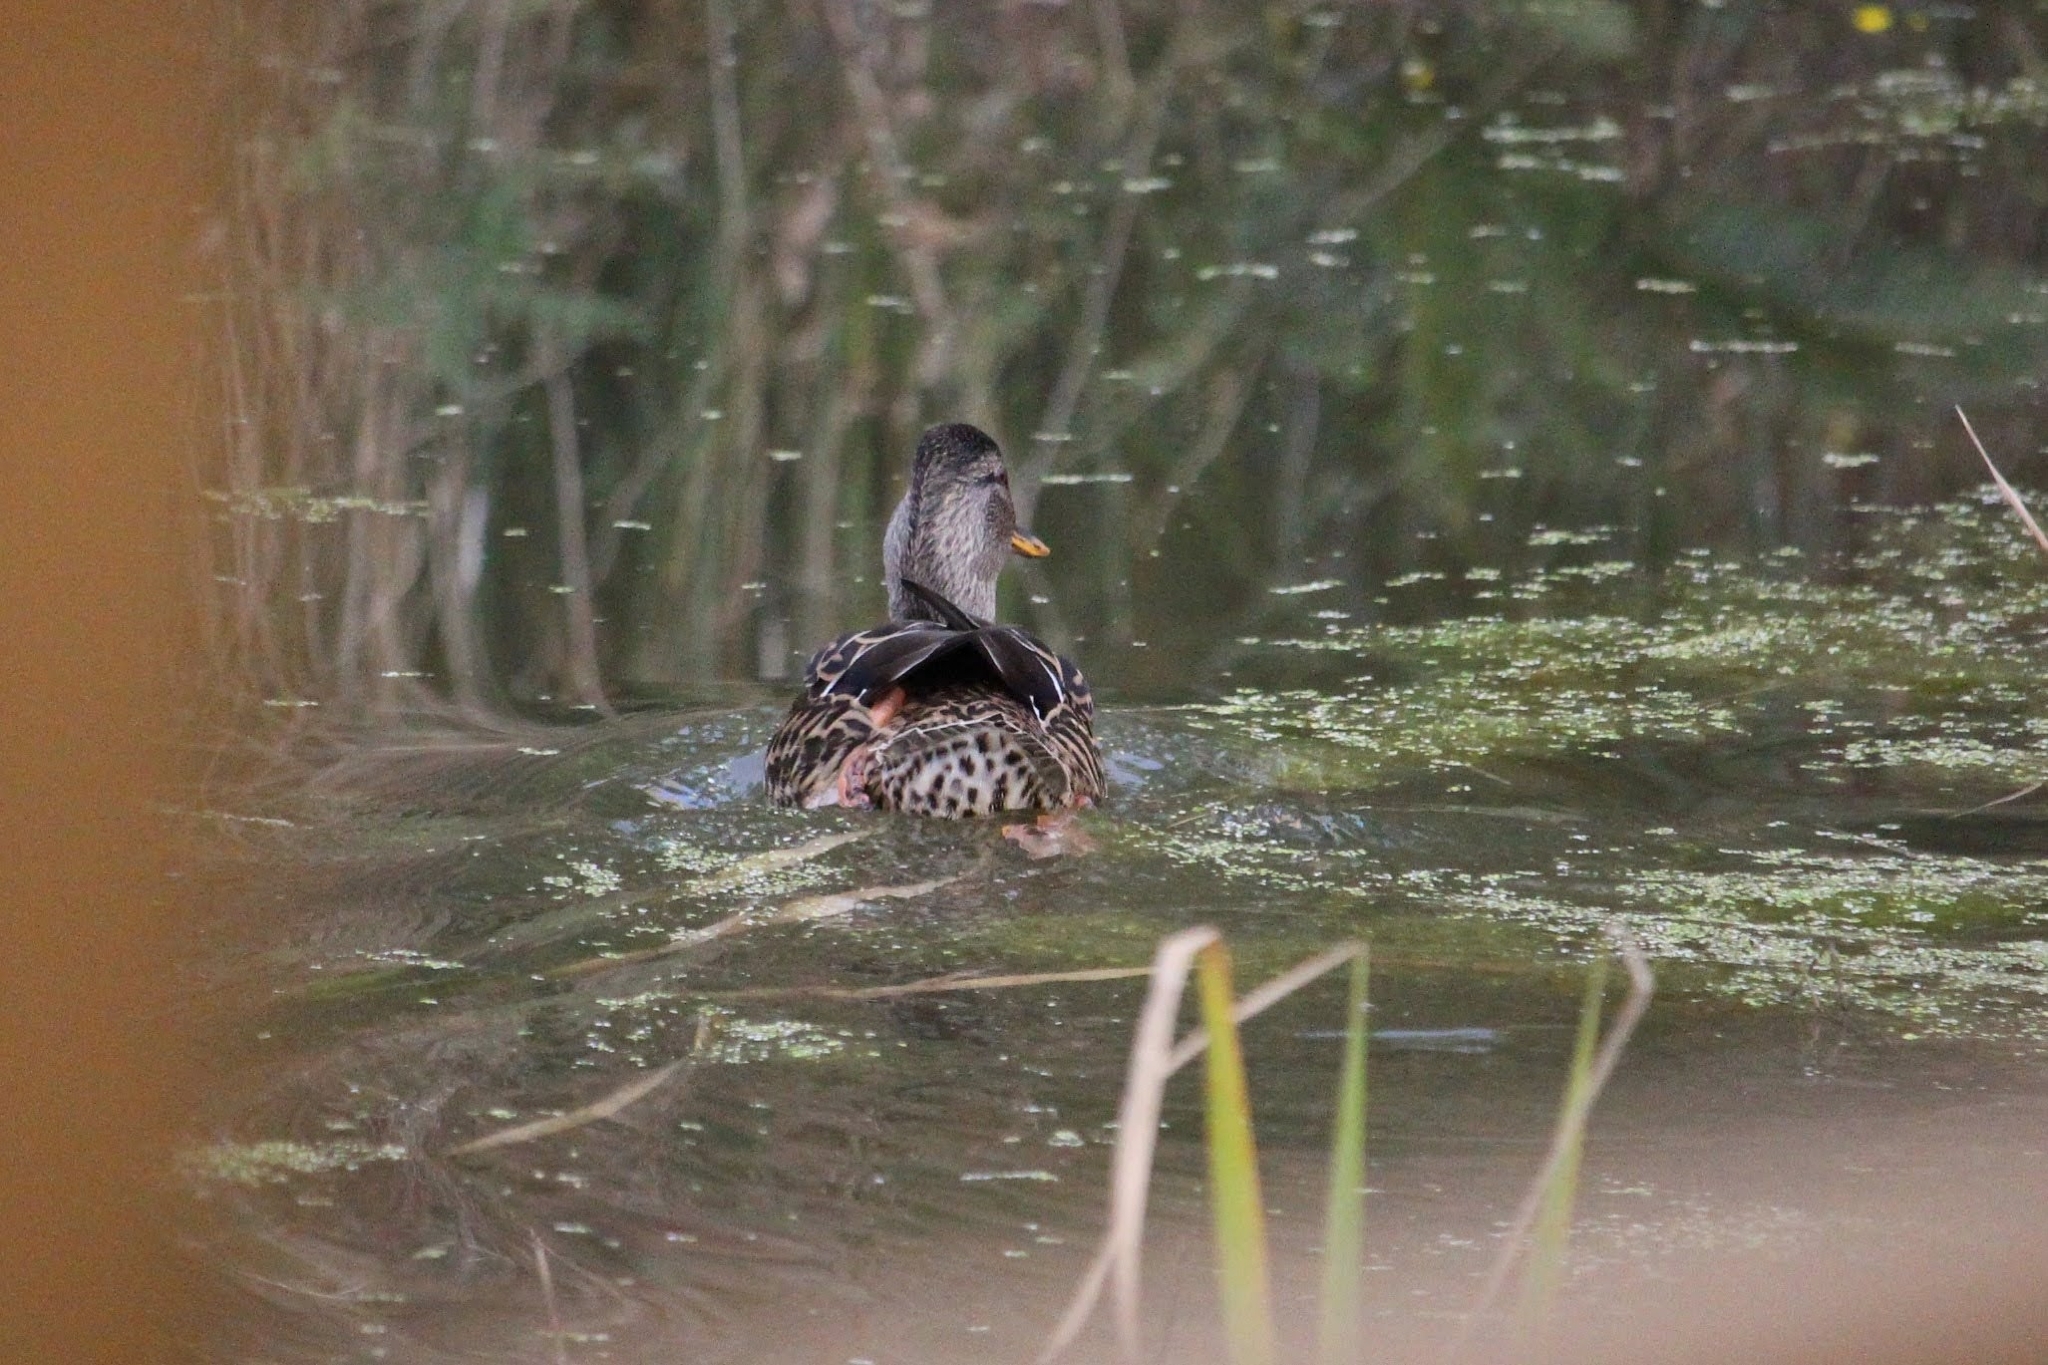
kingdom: Animalia
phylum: Chordata
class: Aves
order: Anseriformes
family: Anatidae
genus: Anas
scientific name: Anas platyrhynchos
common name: Mallard
